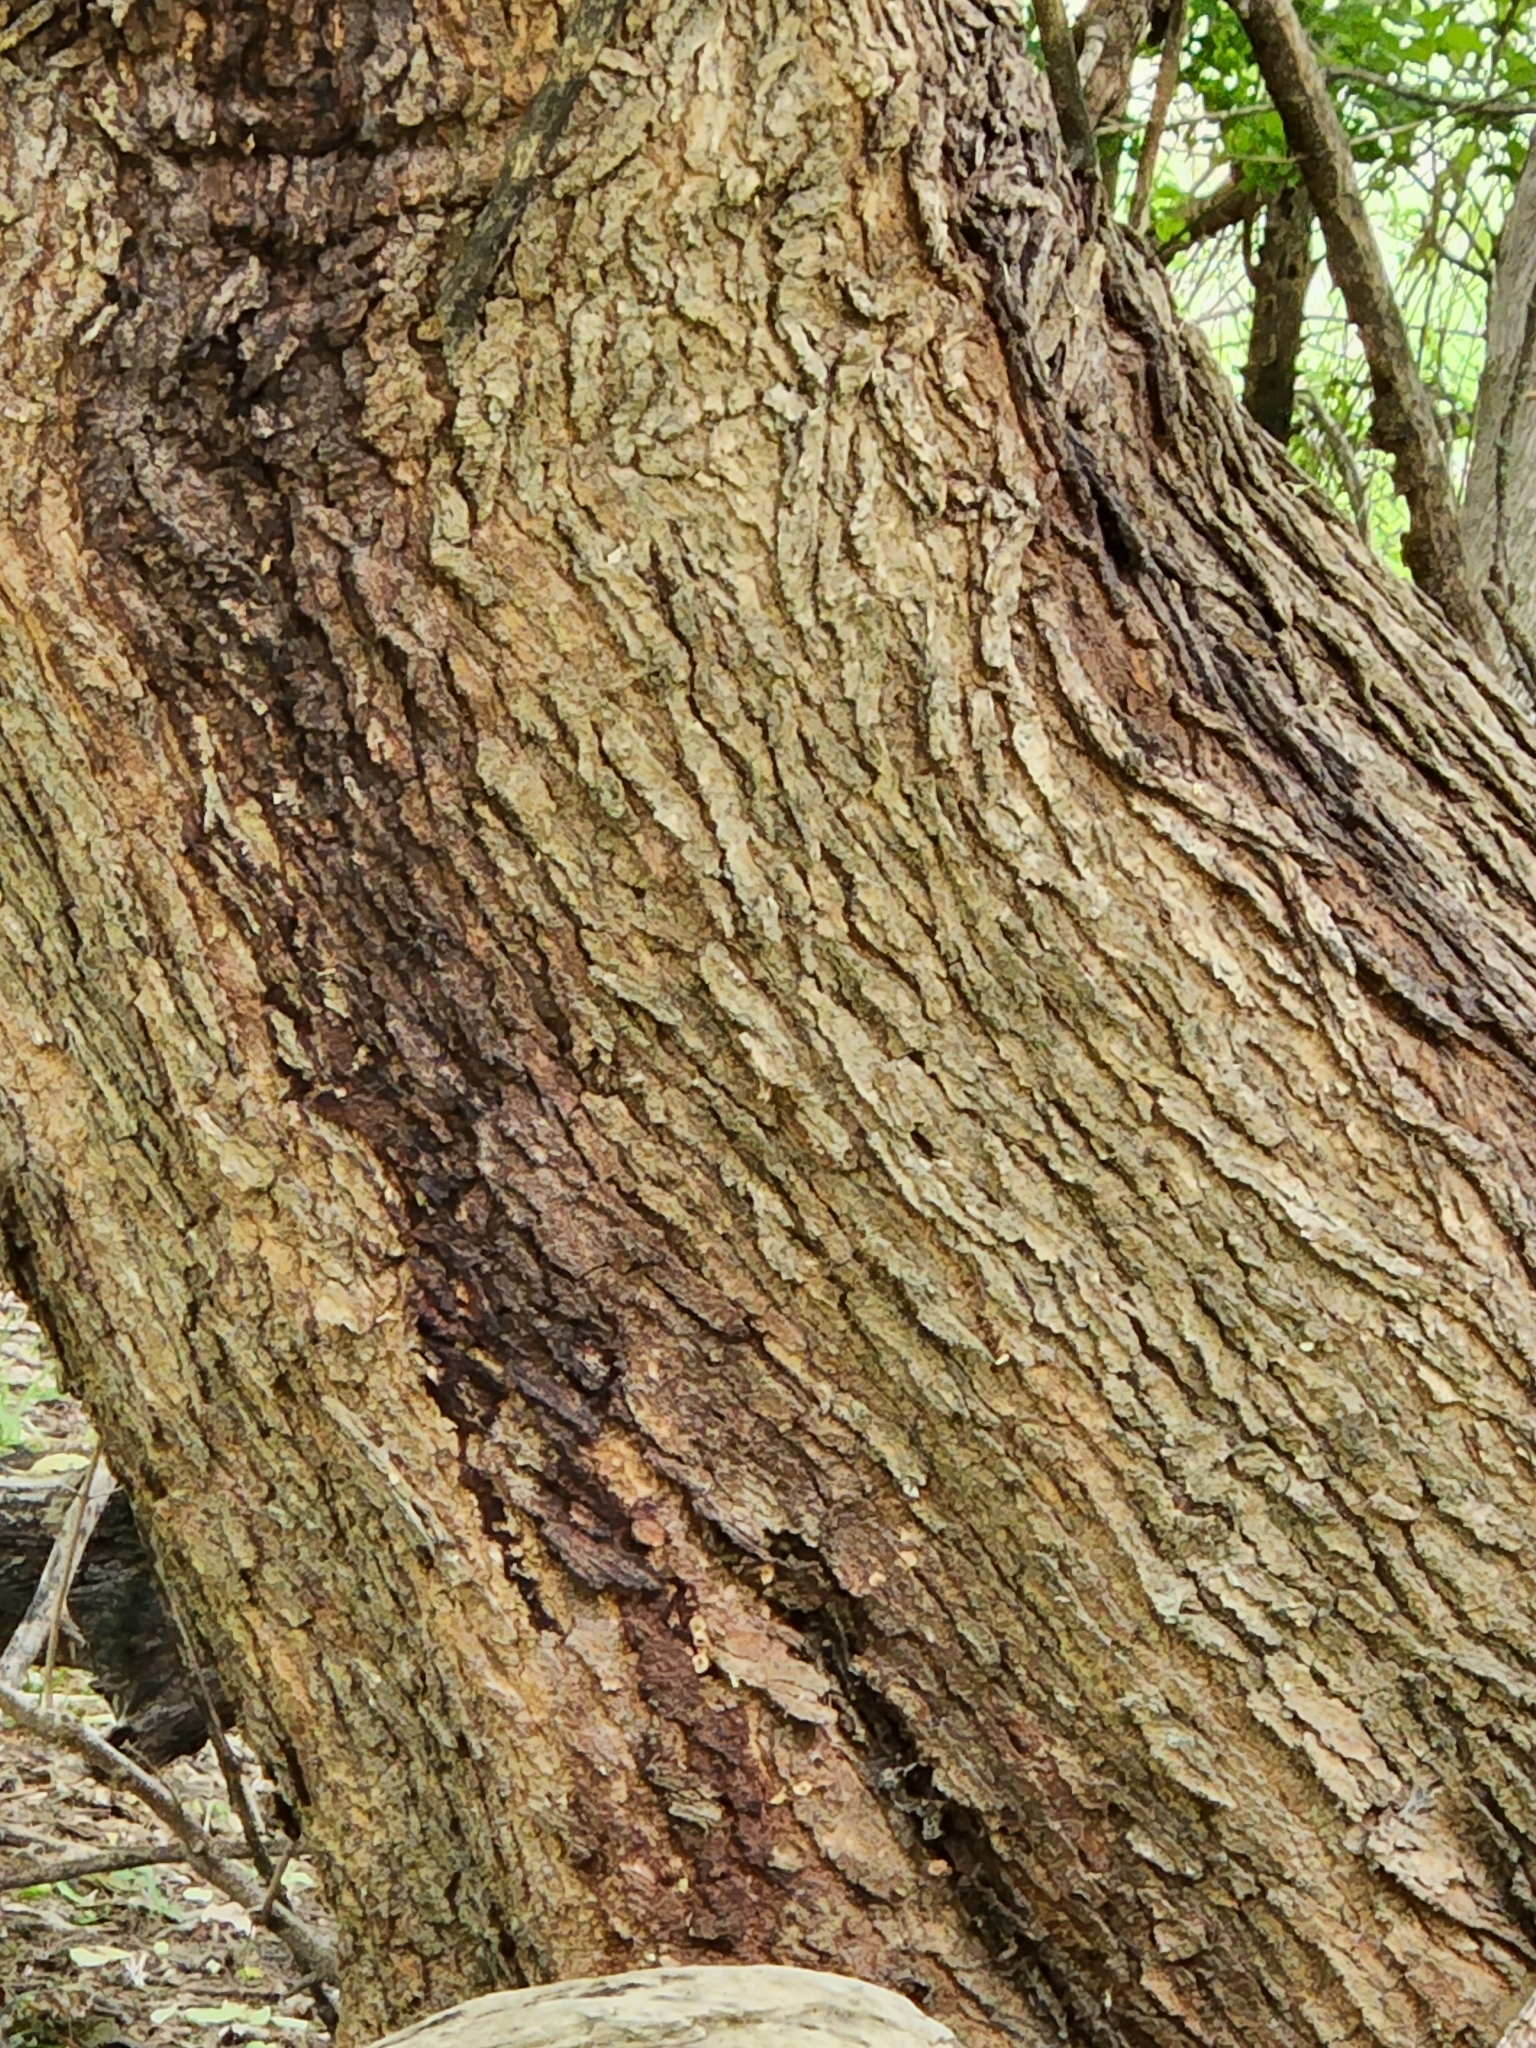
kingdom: Plantae
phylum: Tracheophyta
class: Magnoliopsida
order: Rosales
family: Moraceae
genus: Morus
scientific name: Morus alba
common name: White mulberry
